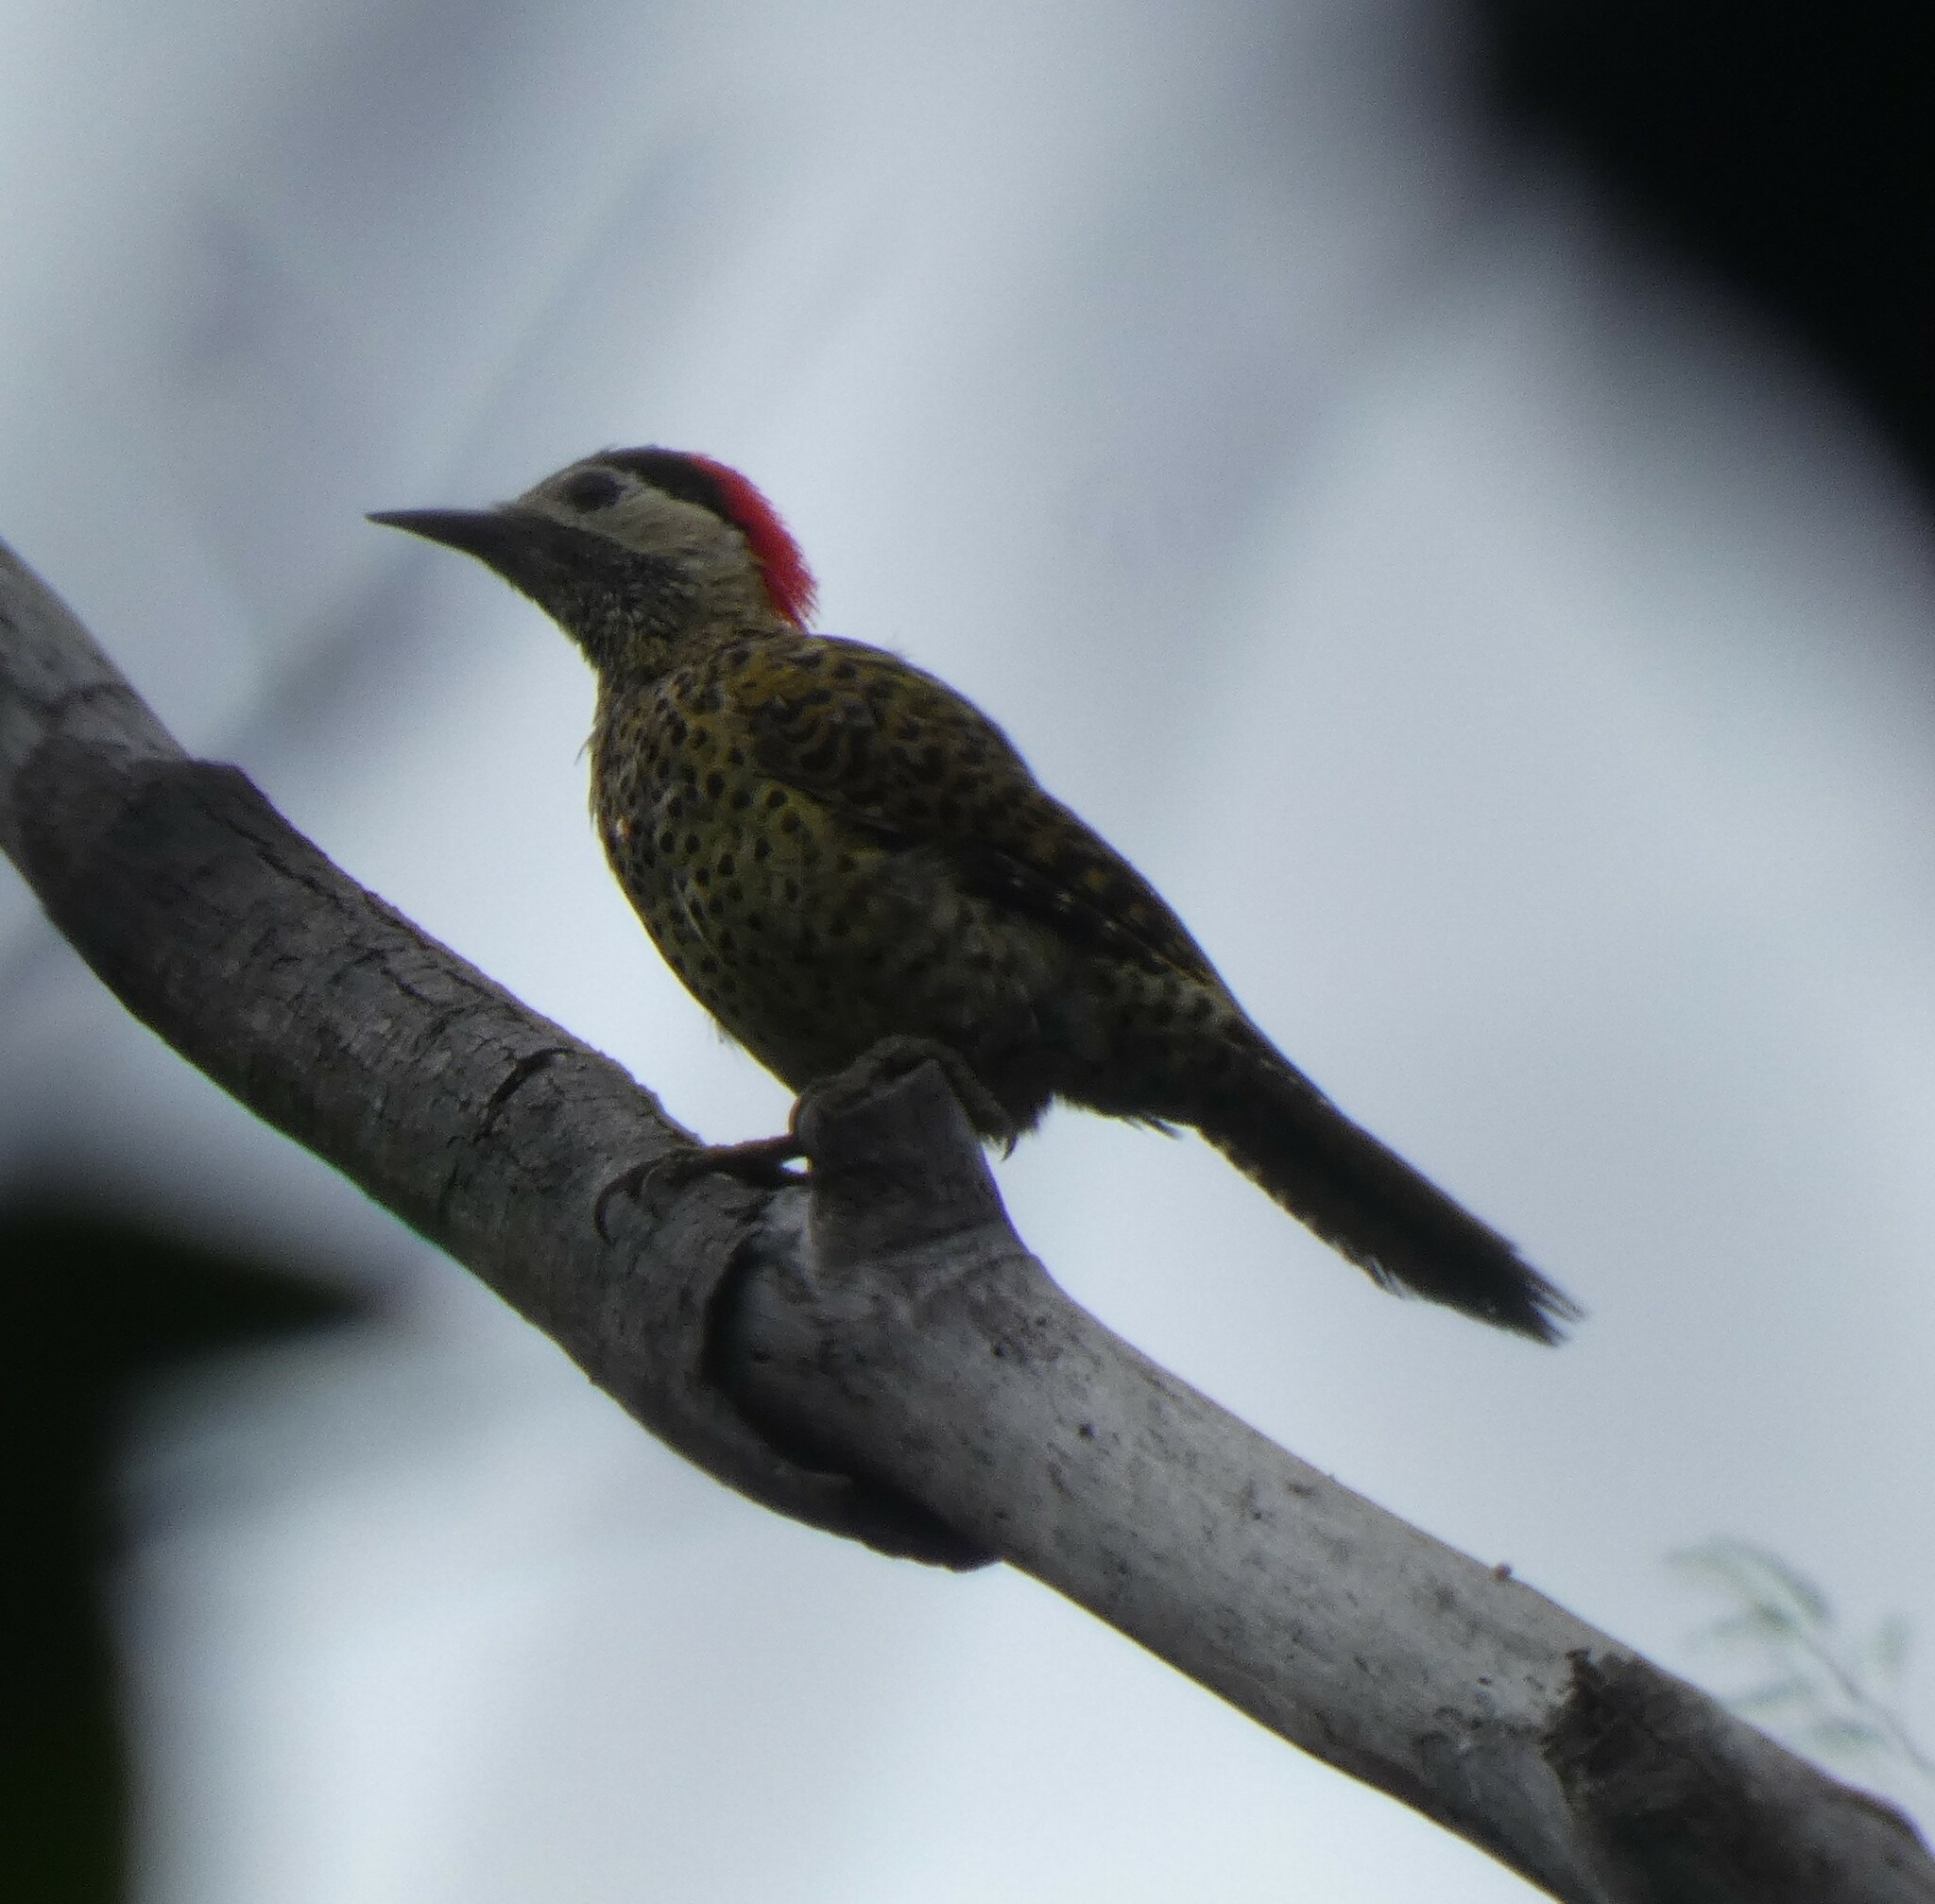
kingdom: Animalia
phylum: Chordata
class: Aves
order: Piciformes
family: Picidae
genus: Colaptes
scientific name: Colaptes melanochloros
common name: Green-barred woodpecker
